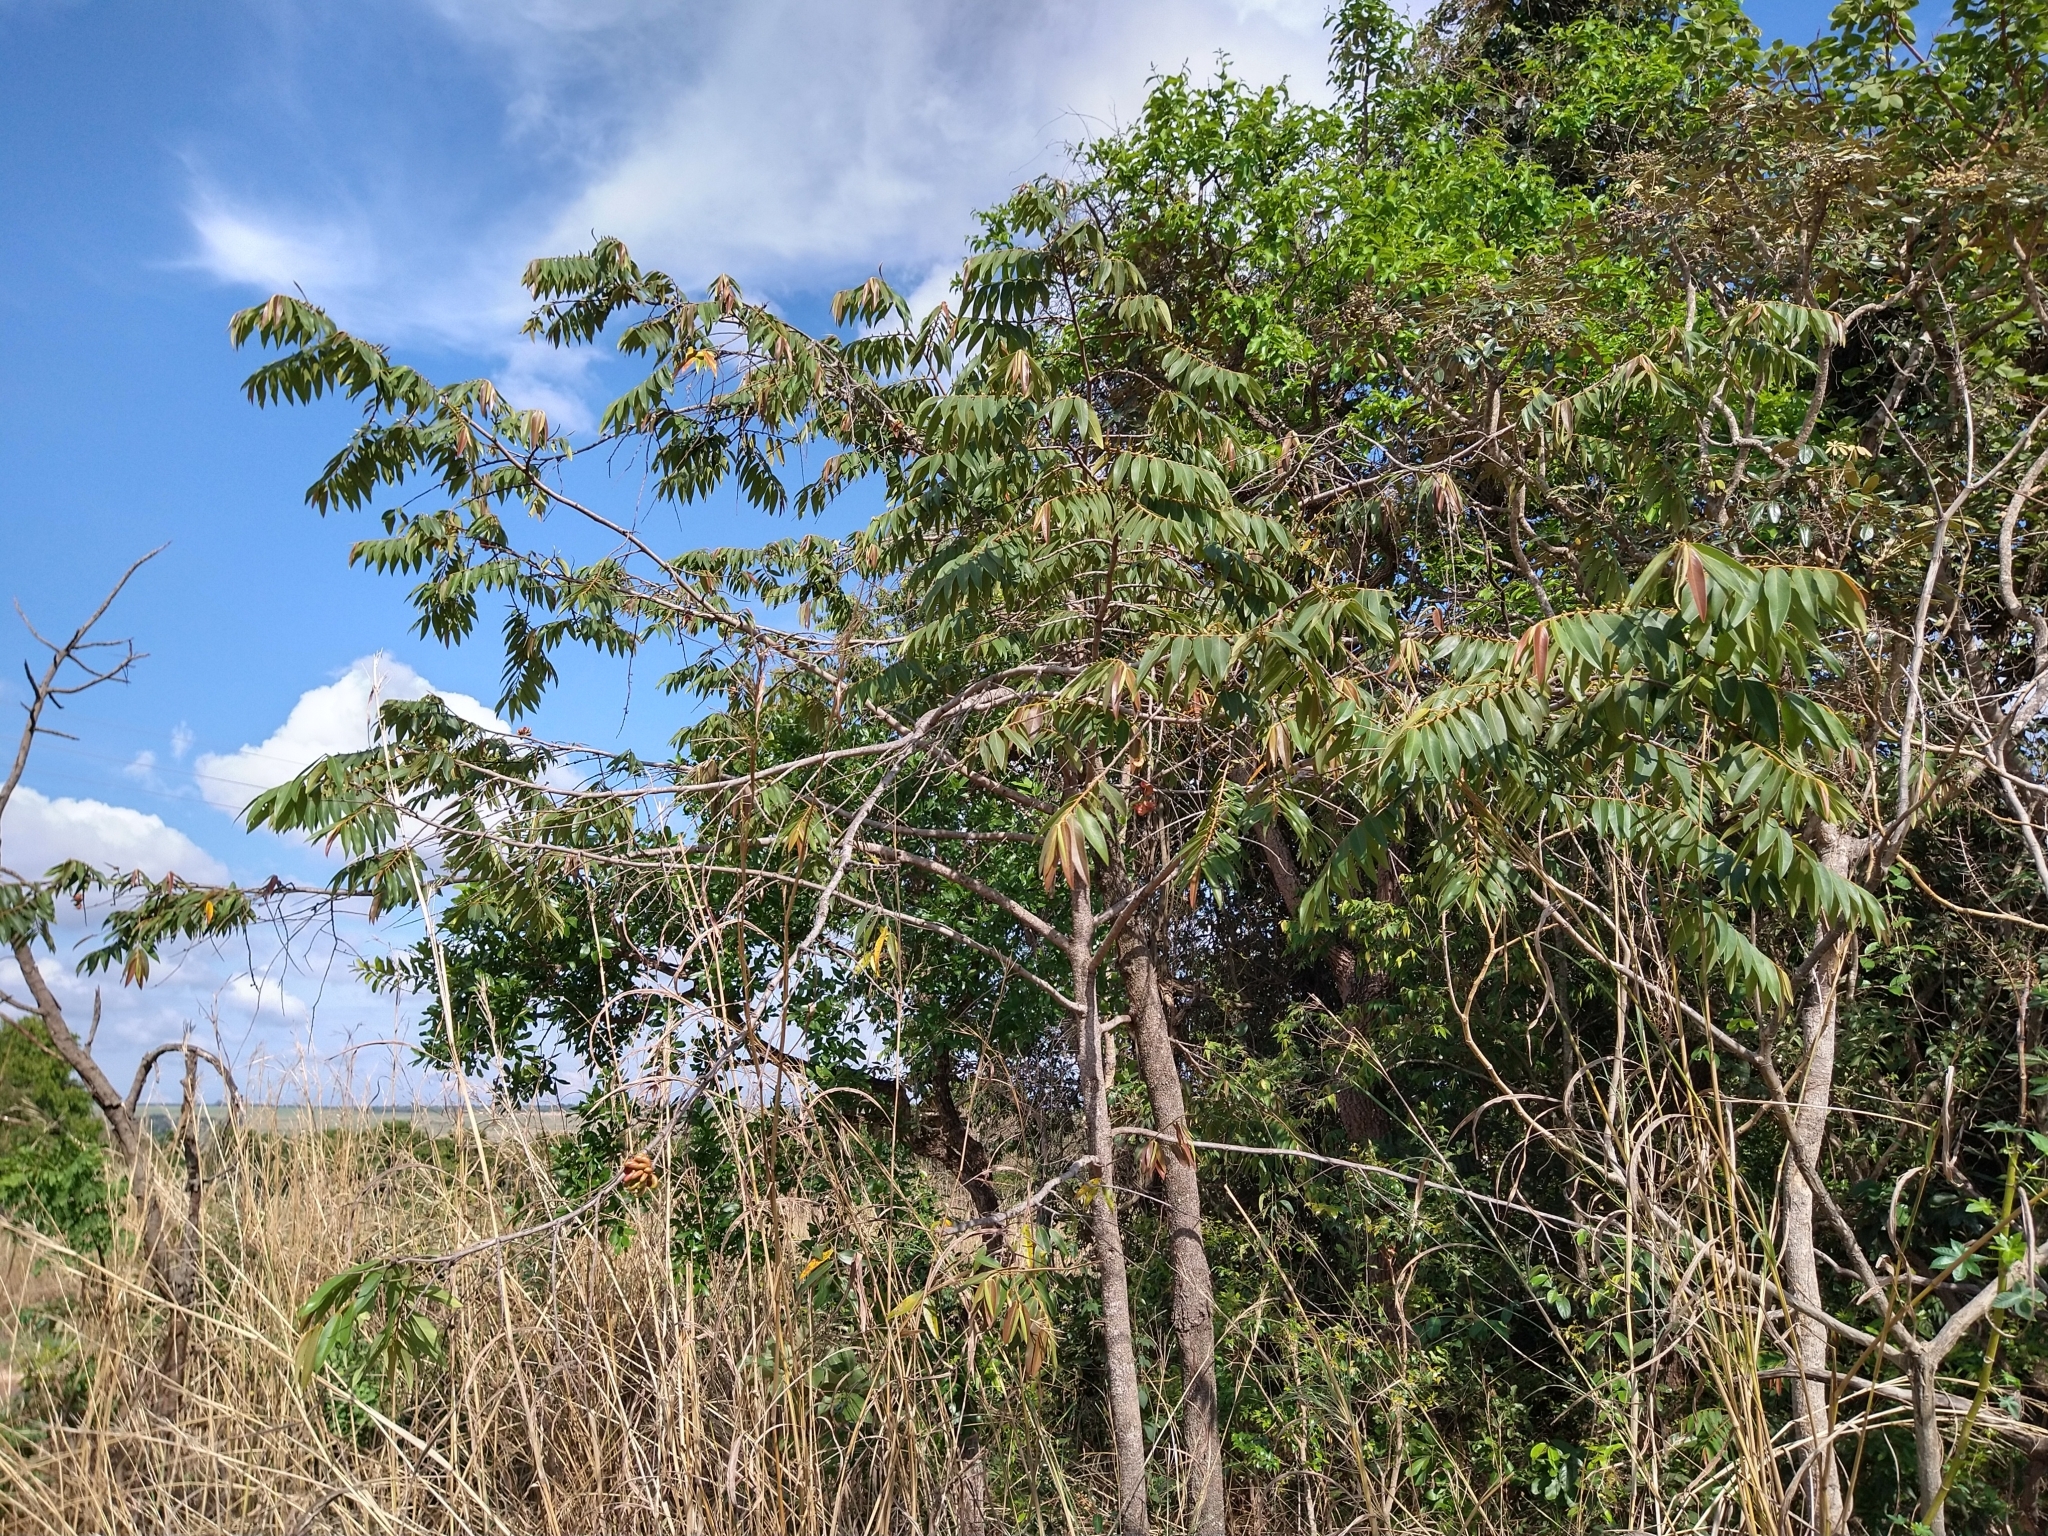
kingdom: Plantae
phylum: Tracheophyta
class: Magnoliopsida
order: Magnoliales
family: Annonaceae
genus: Xylopia
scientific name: Xylopia aromatica
